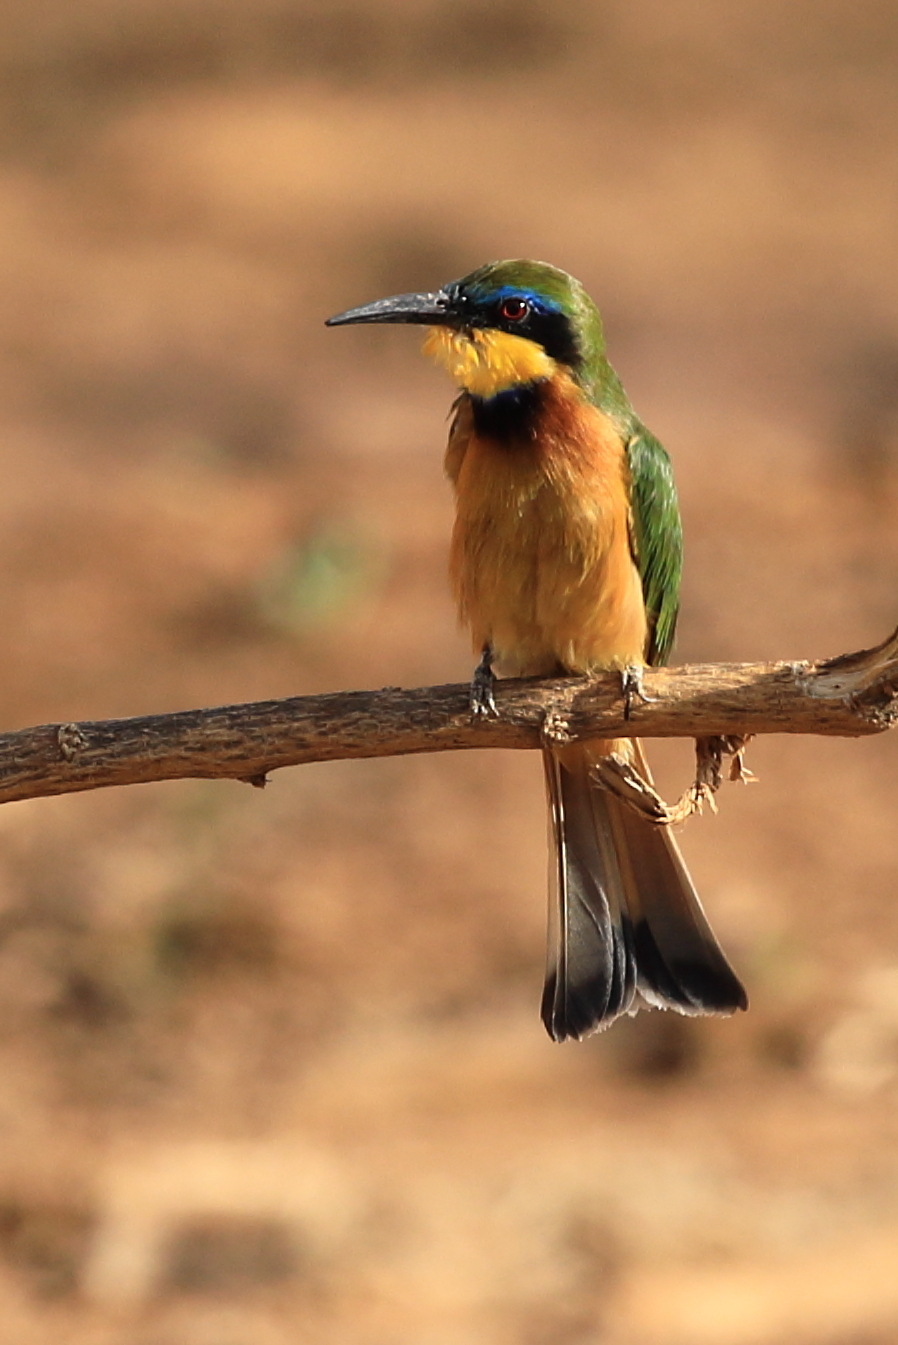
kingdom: Animalia
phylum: Chordata
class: Aves
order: Coraciiformes
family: Meropidae
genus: Merops
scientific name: Merops pusillus
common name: Little bee-eater
